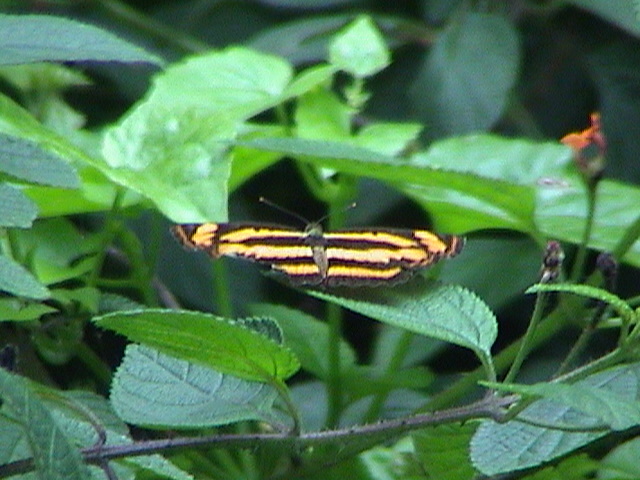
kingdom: Animalia
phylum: Arthropoda
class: Insecta
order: Lepidoptera
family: Nymphalidae
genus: Pantoporia
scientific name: Pantoporia hordonia
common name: Common lascar
